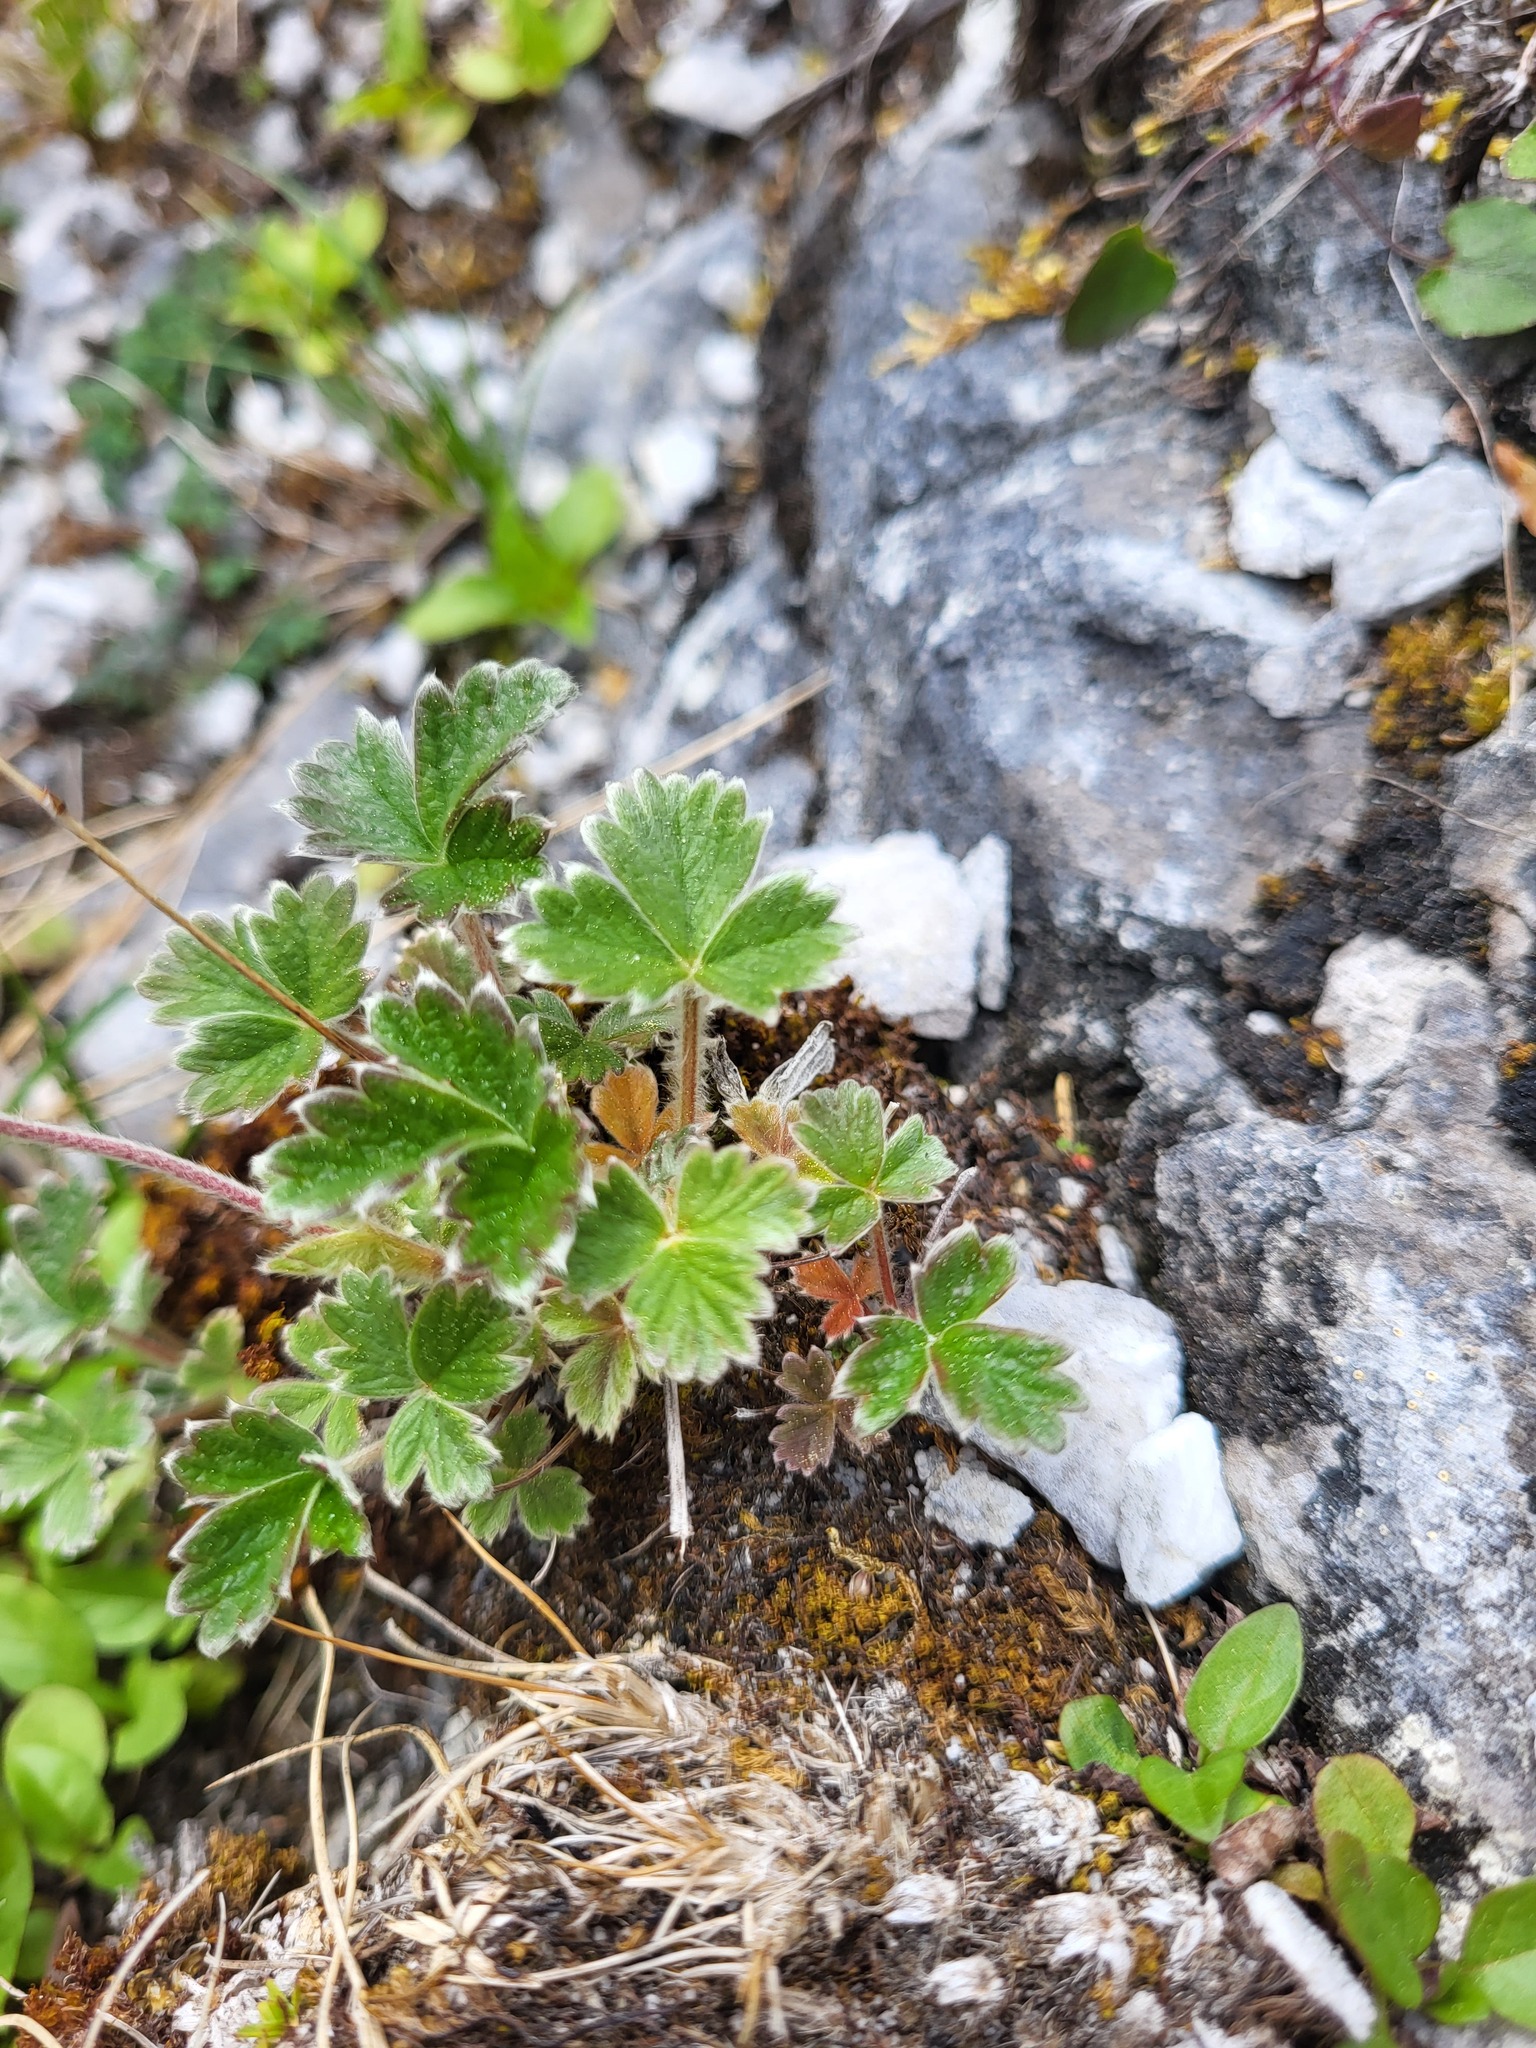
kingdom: Plantae
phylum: Tracheophyta
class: Magnoliopsida
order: Rosales
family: Rosaceae
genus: Potentilla
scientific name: Potentilla villosula
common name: Finely villous cinquefoil
